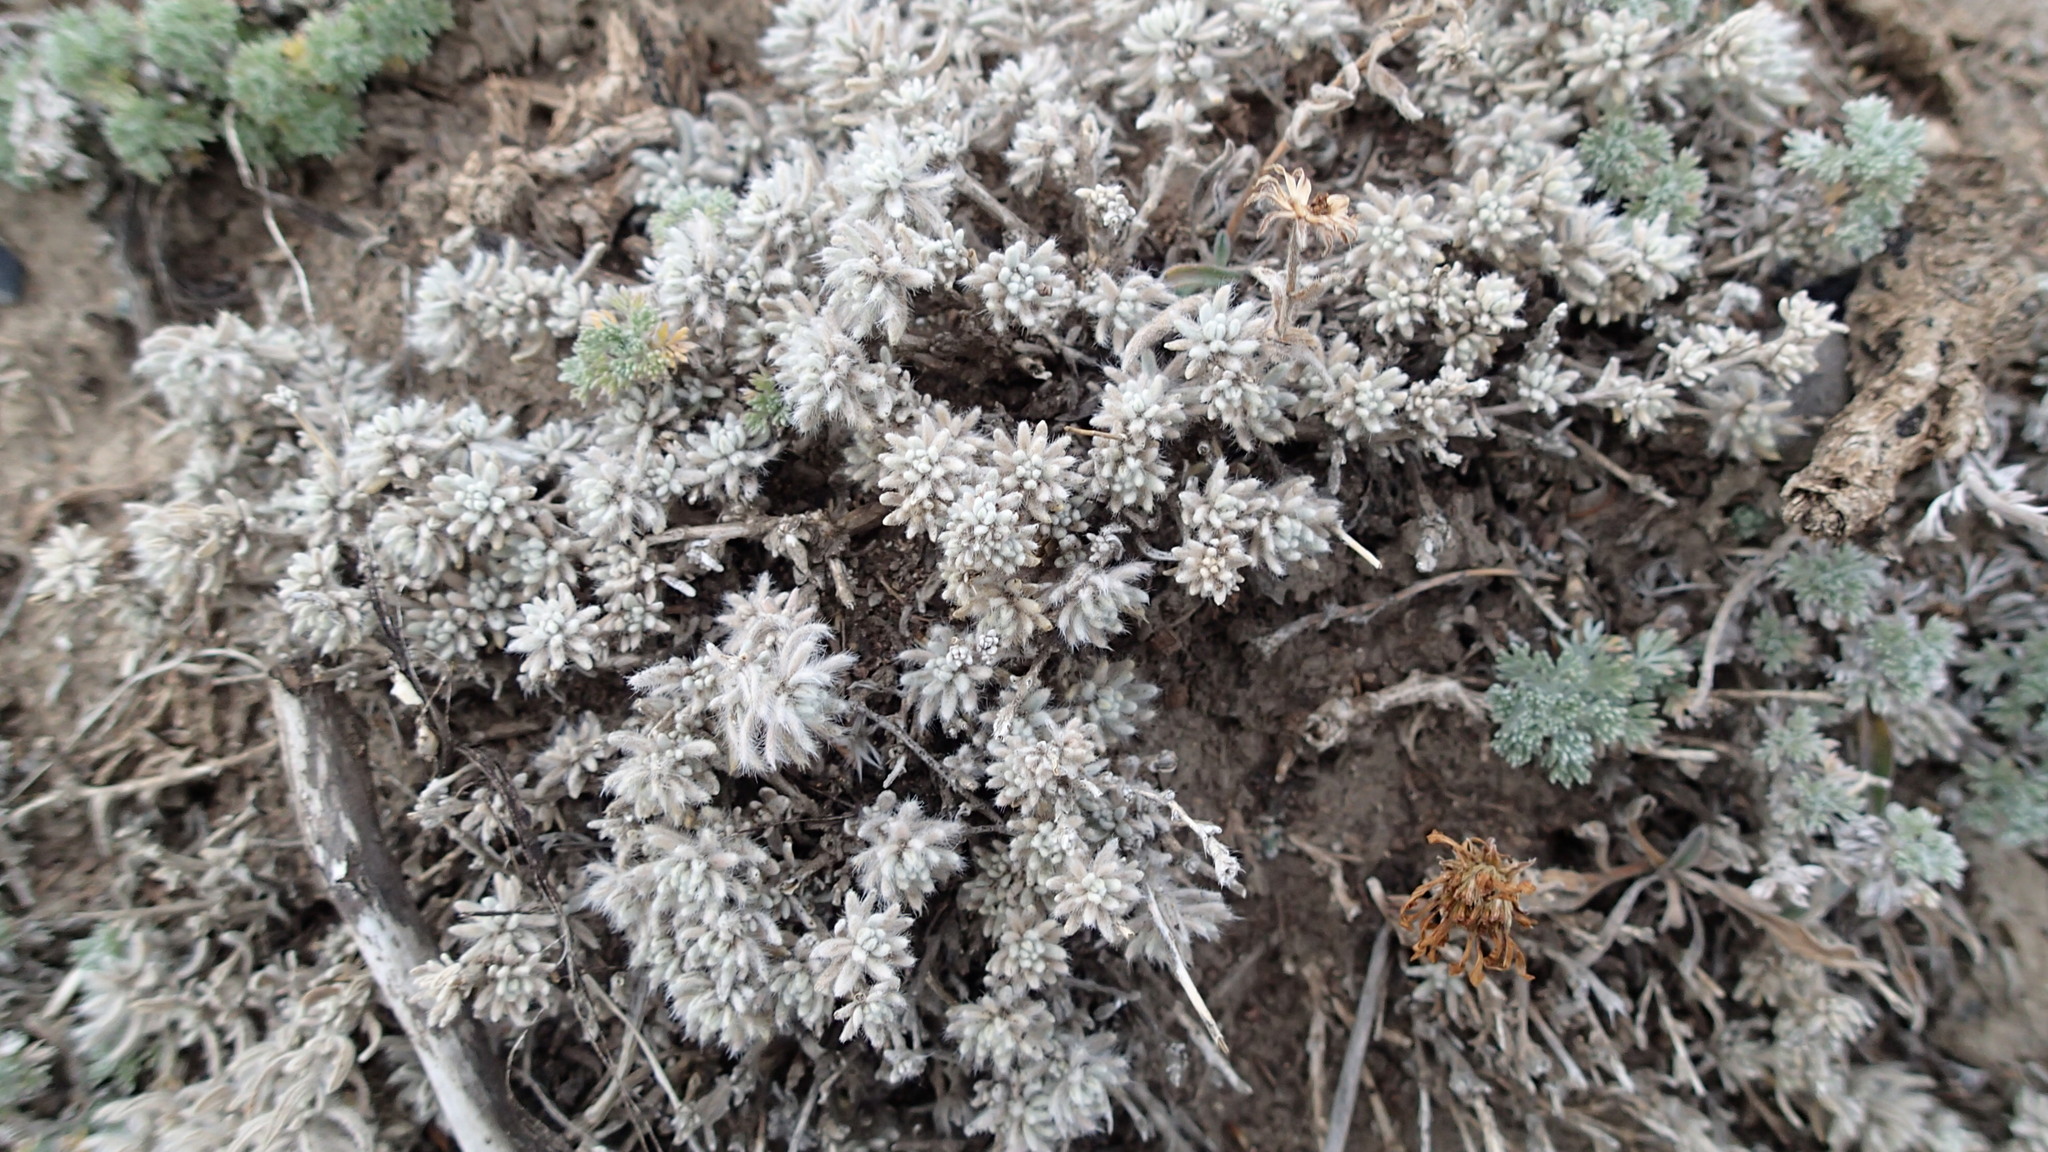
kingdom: Plantae
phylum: Tracheophyta
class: Magnoliopsida
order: Caryophyllales
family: Amaranthaceae
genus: Krascheninnikovia
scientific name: Krascheninnikovia lanata
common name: Winterfat
